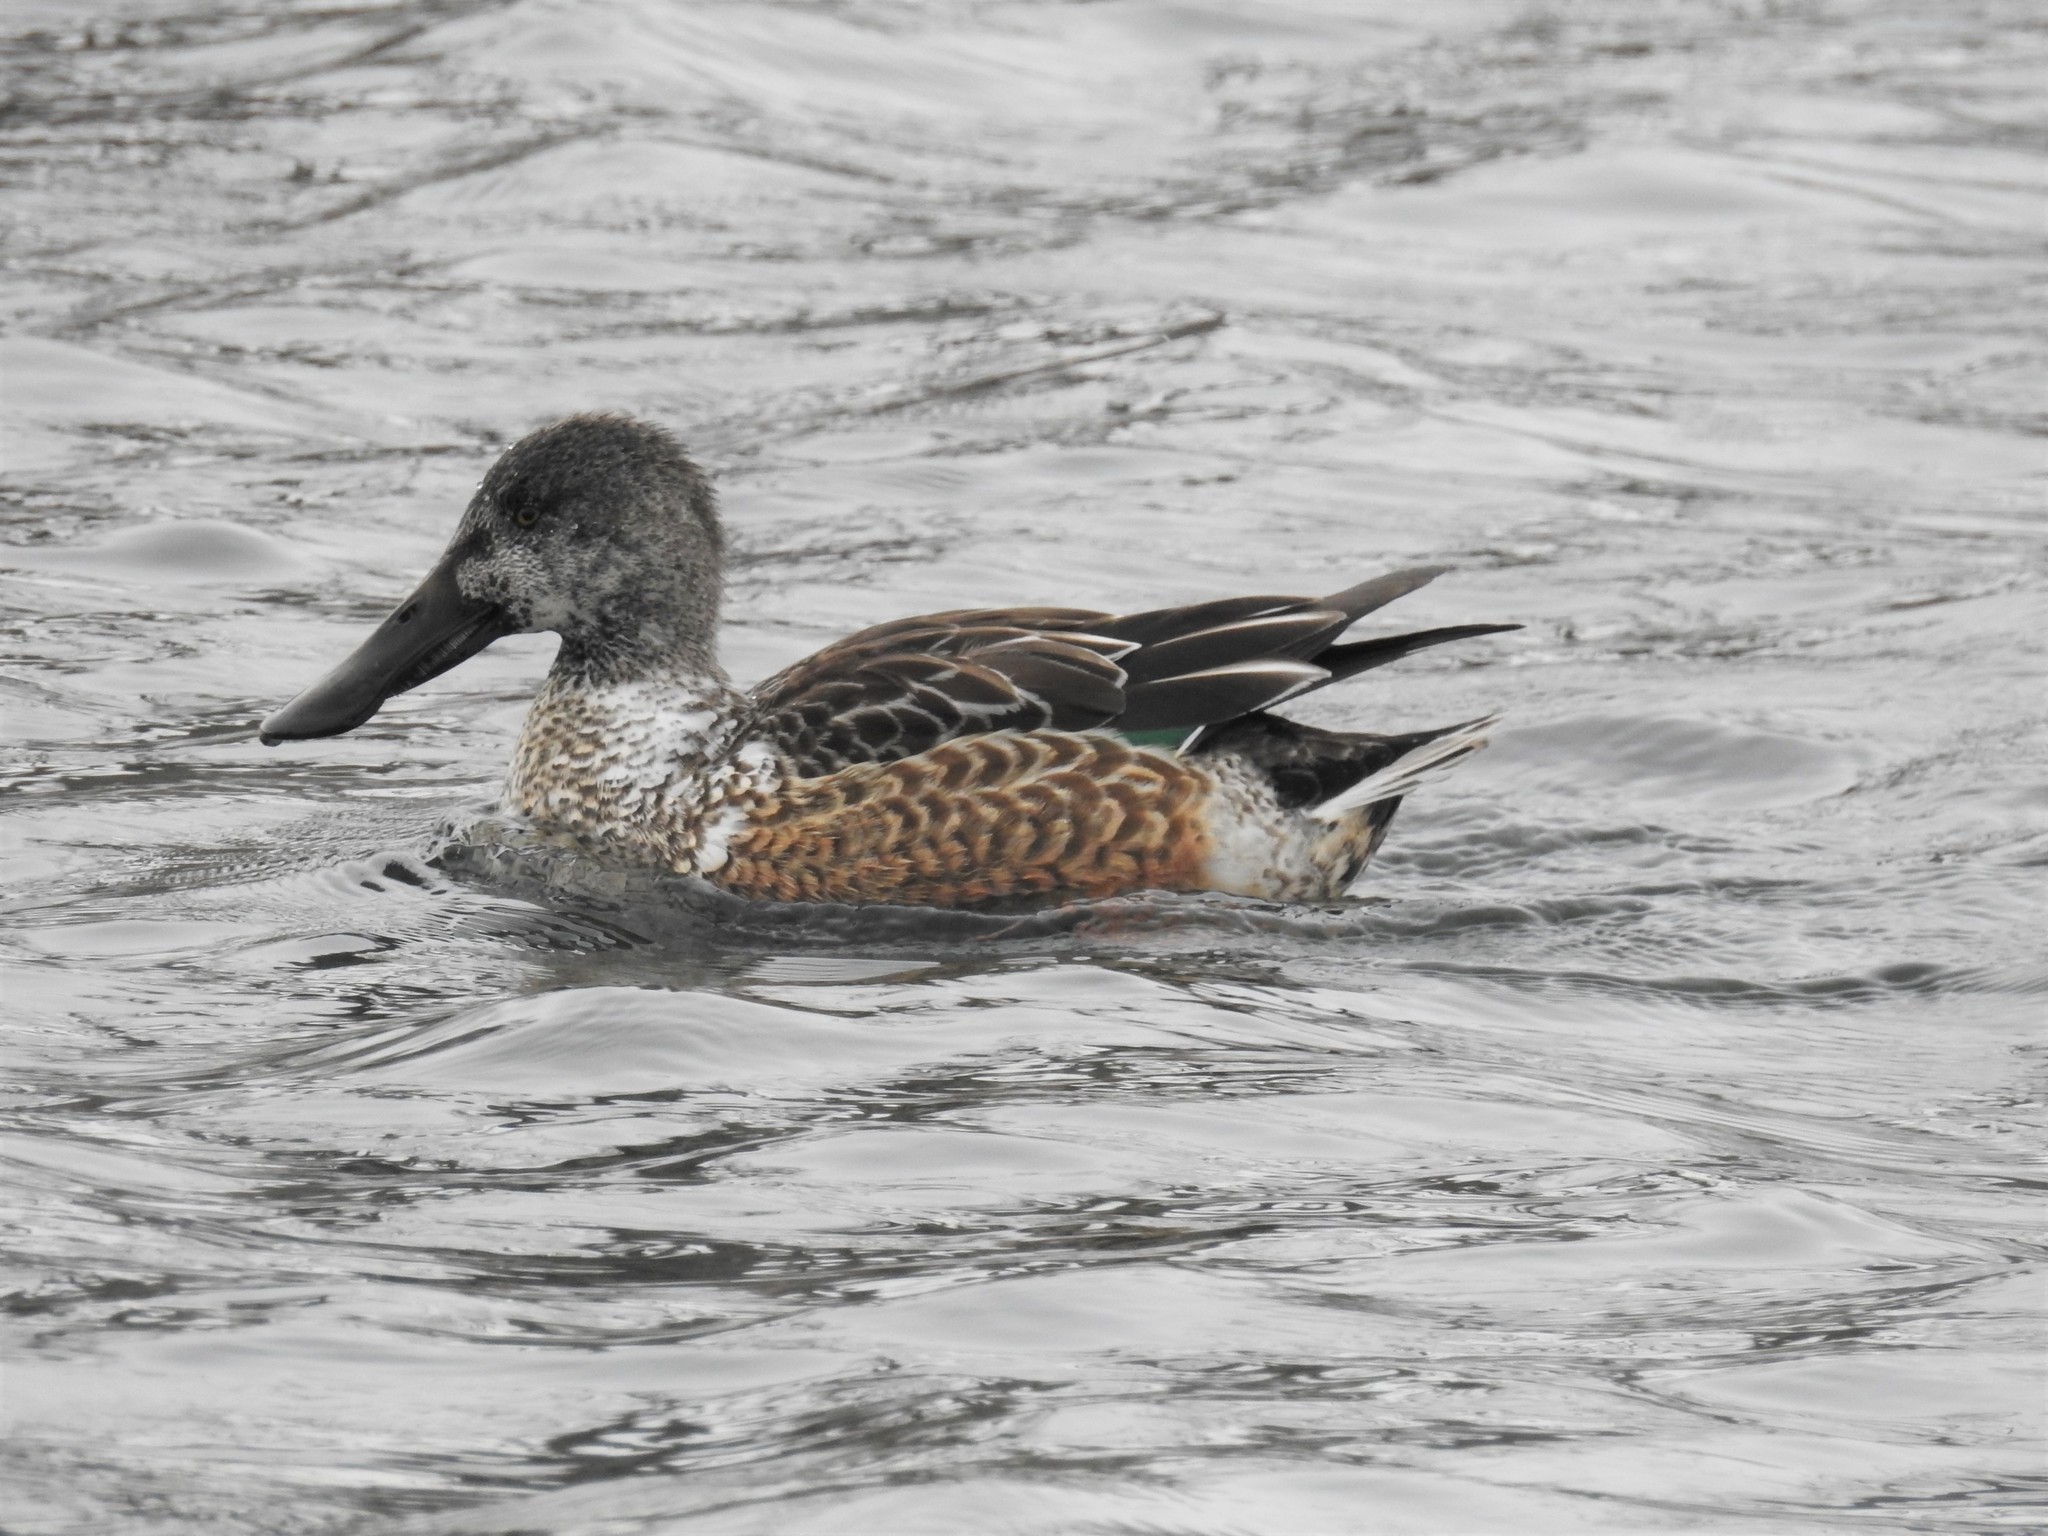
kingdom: Animalia
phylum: Chordata
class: Aves
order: Anseriformes
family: Anatidae
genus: Spatula
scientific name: Spatula clypeata
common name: Northern shoveler
